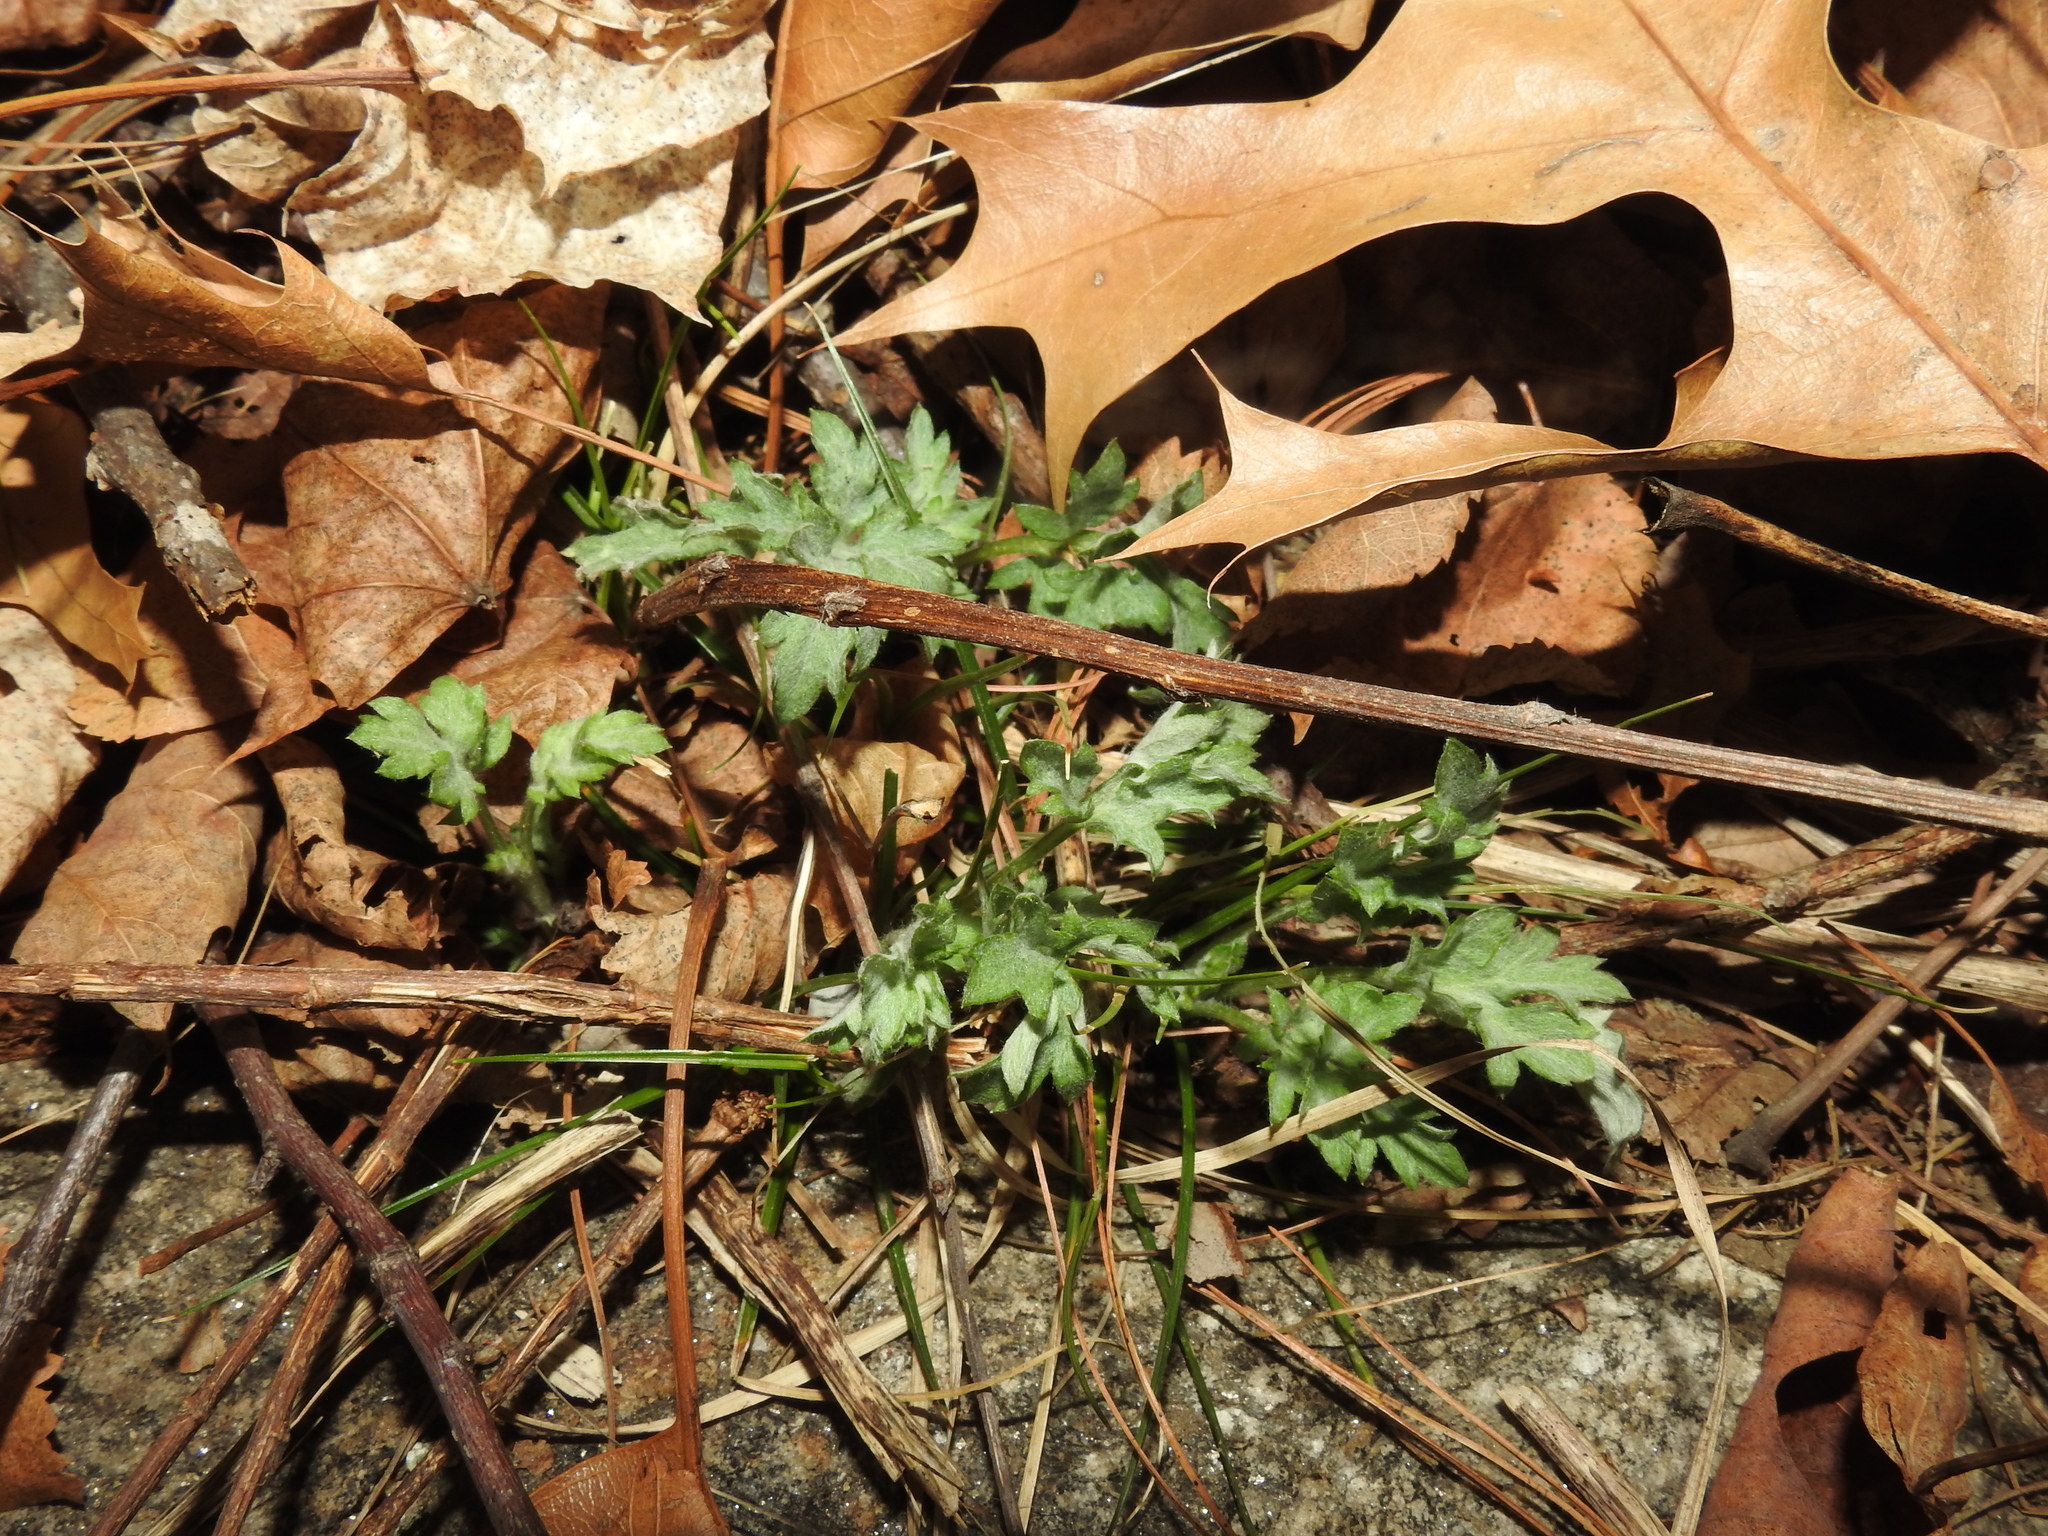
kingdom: Plantae
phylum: Tracheophyta
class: Magnoliopsida
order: Asterales
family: Asteraceae
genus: Artemisia
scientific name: Artemisia vulgaris
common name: Mugwort
